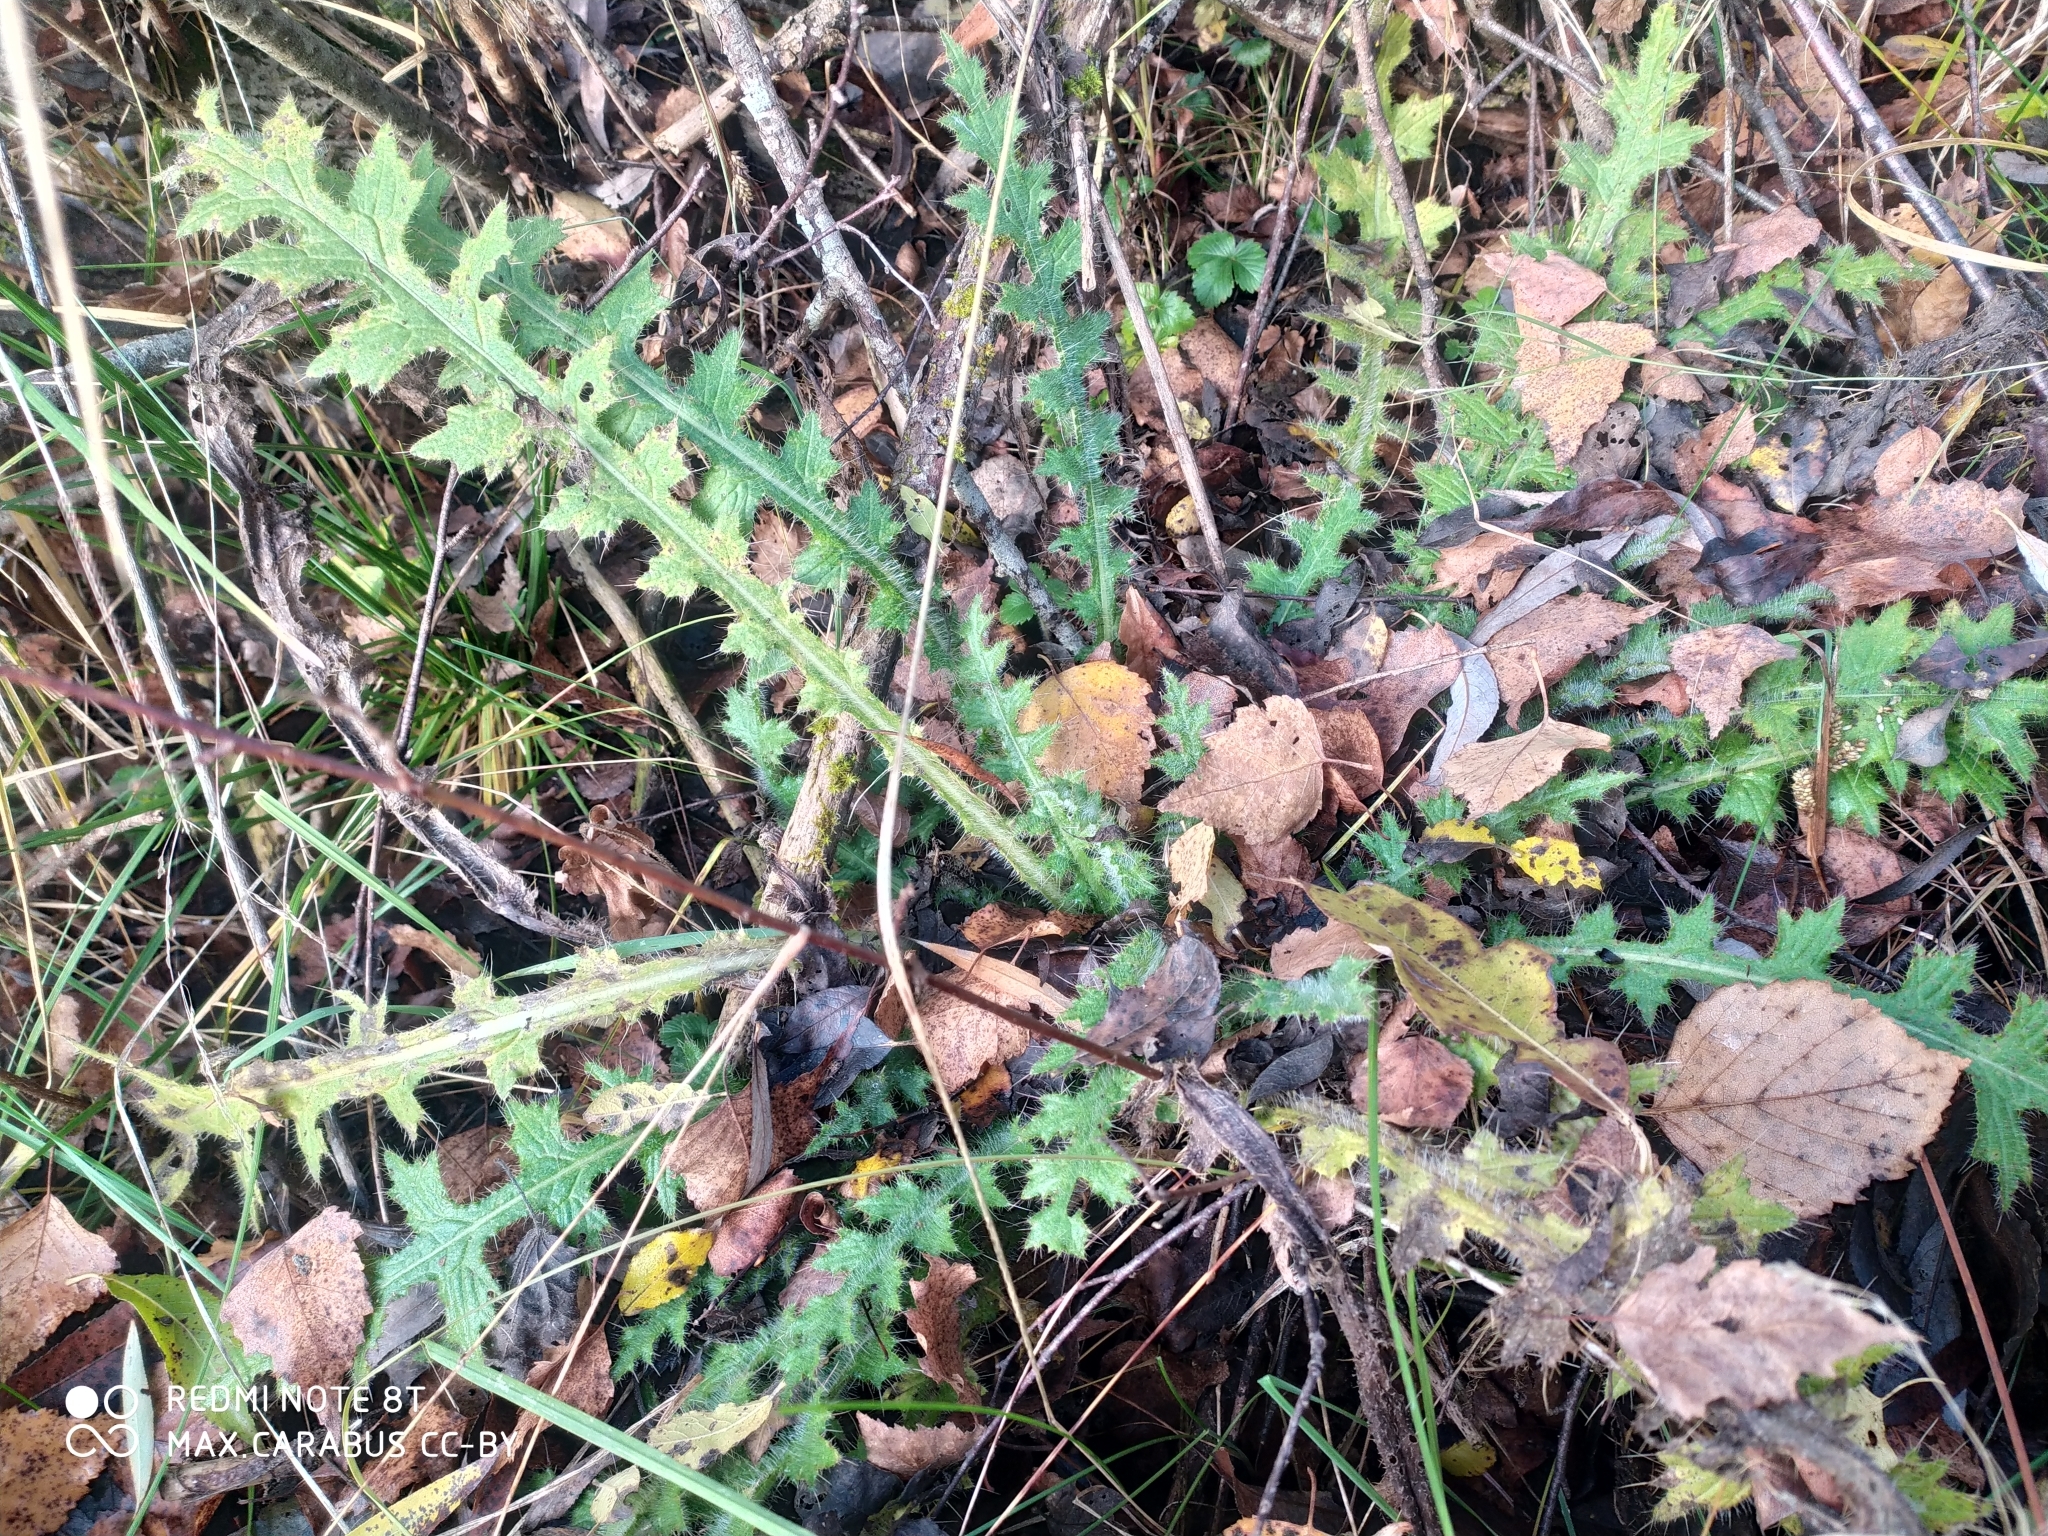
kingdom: Plantae
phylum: Tracheophyta
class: Magnoliopsida
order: Asterales
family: Asteraceae
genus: Cirsium
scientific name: Cirsium palustre
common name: Marsh thistle
